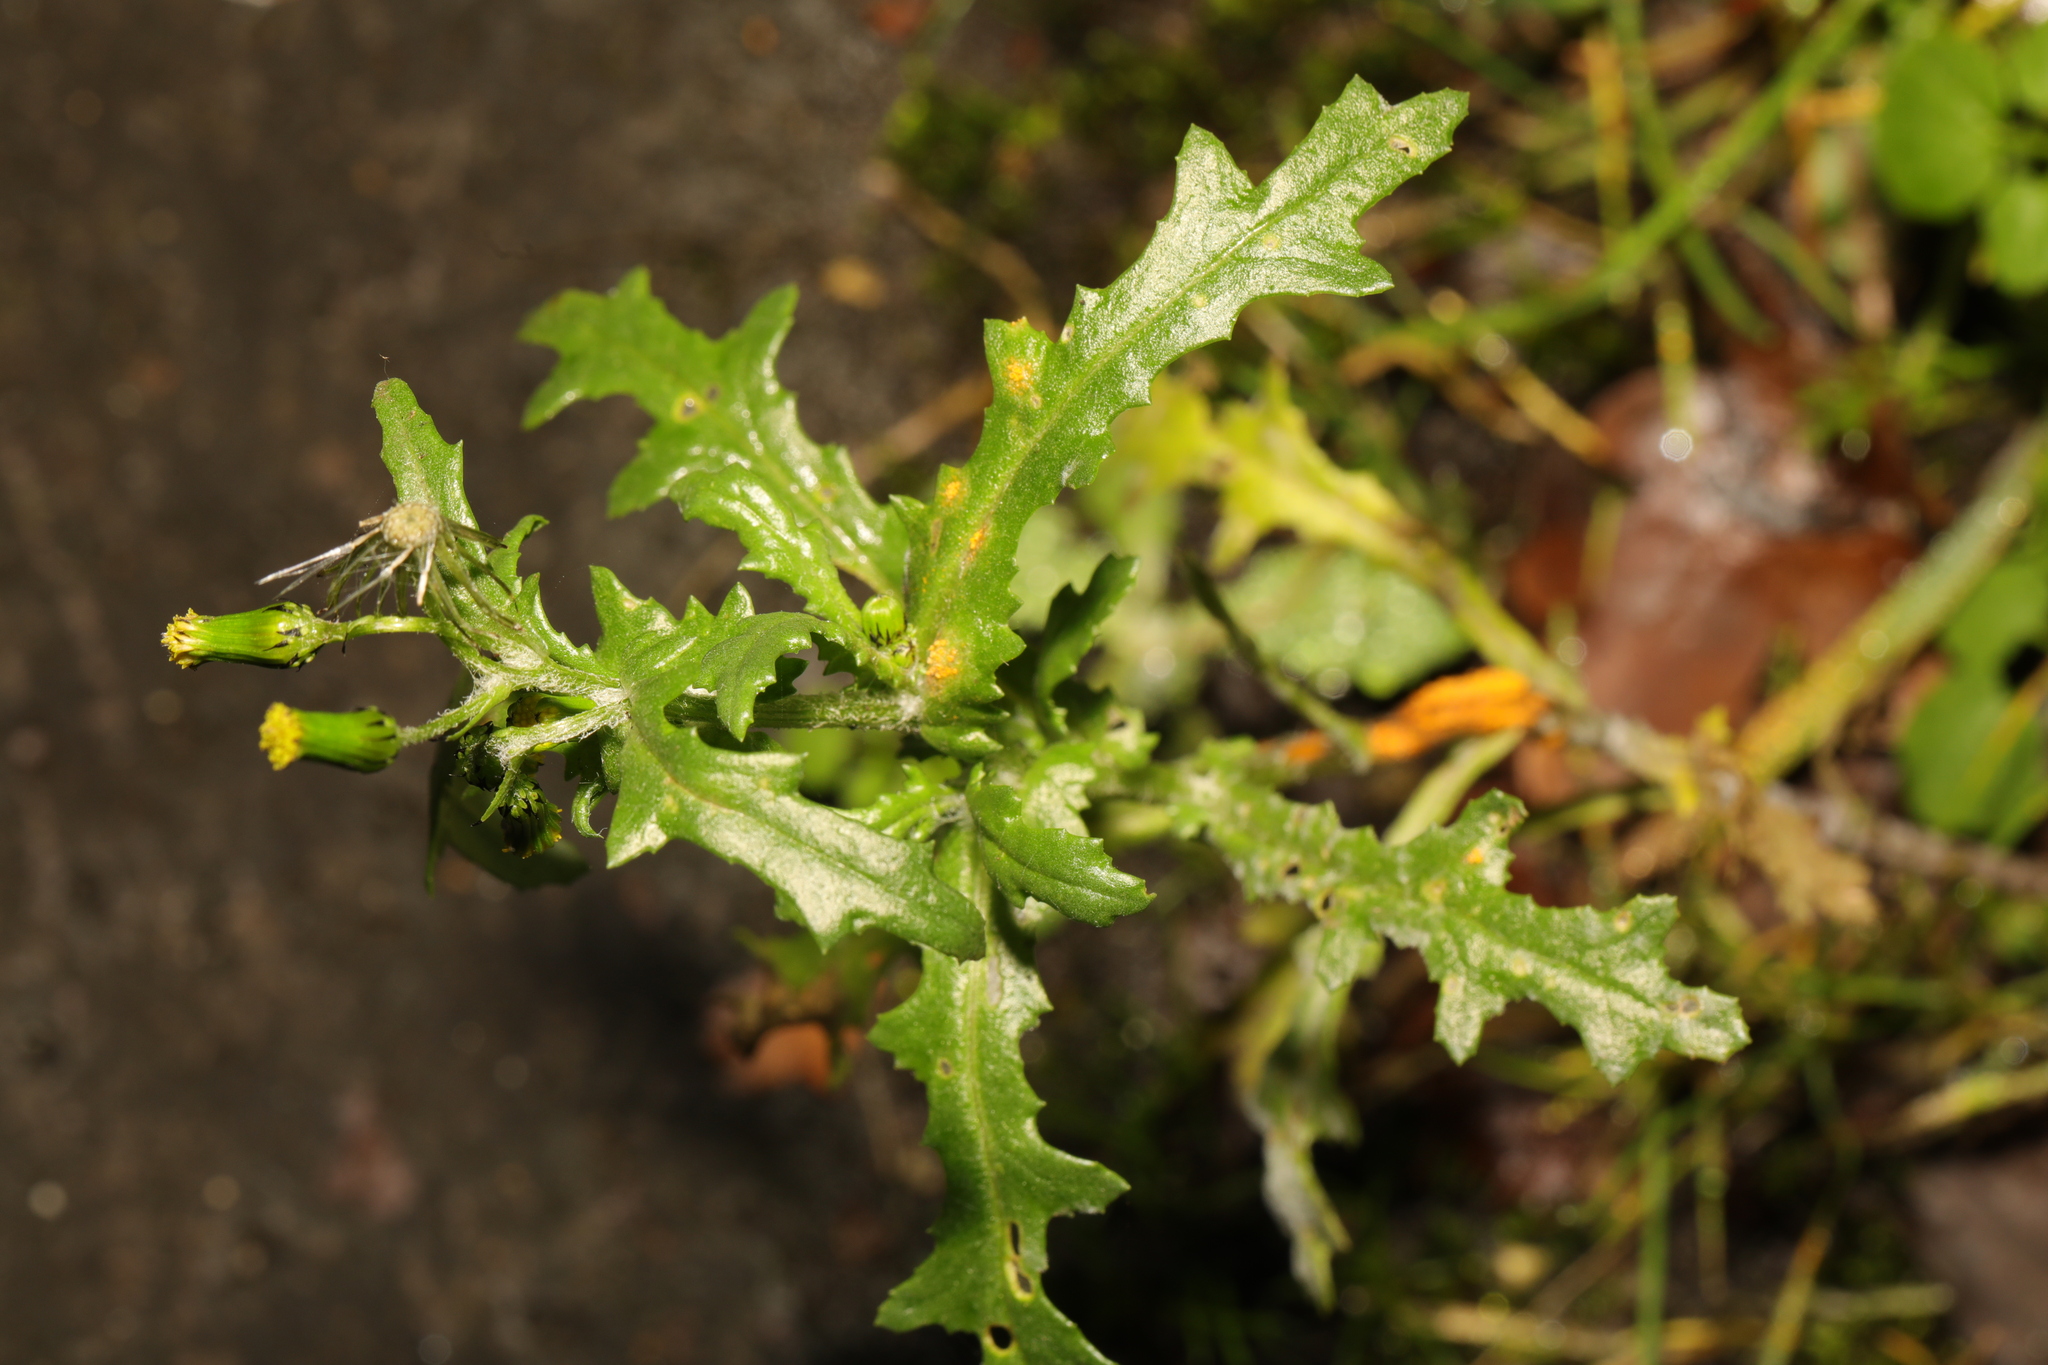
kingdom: Plantae
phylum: Tracheophyta
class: Magnoliopsida
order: Asterales
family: Asteraceae
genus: Senecio
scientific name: Senecio vulgaris
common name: Old-man-in-the-spring
